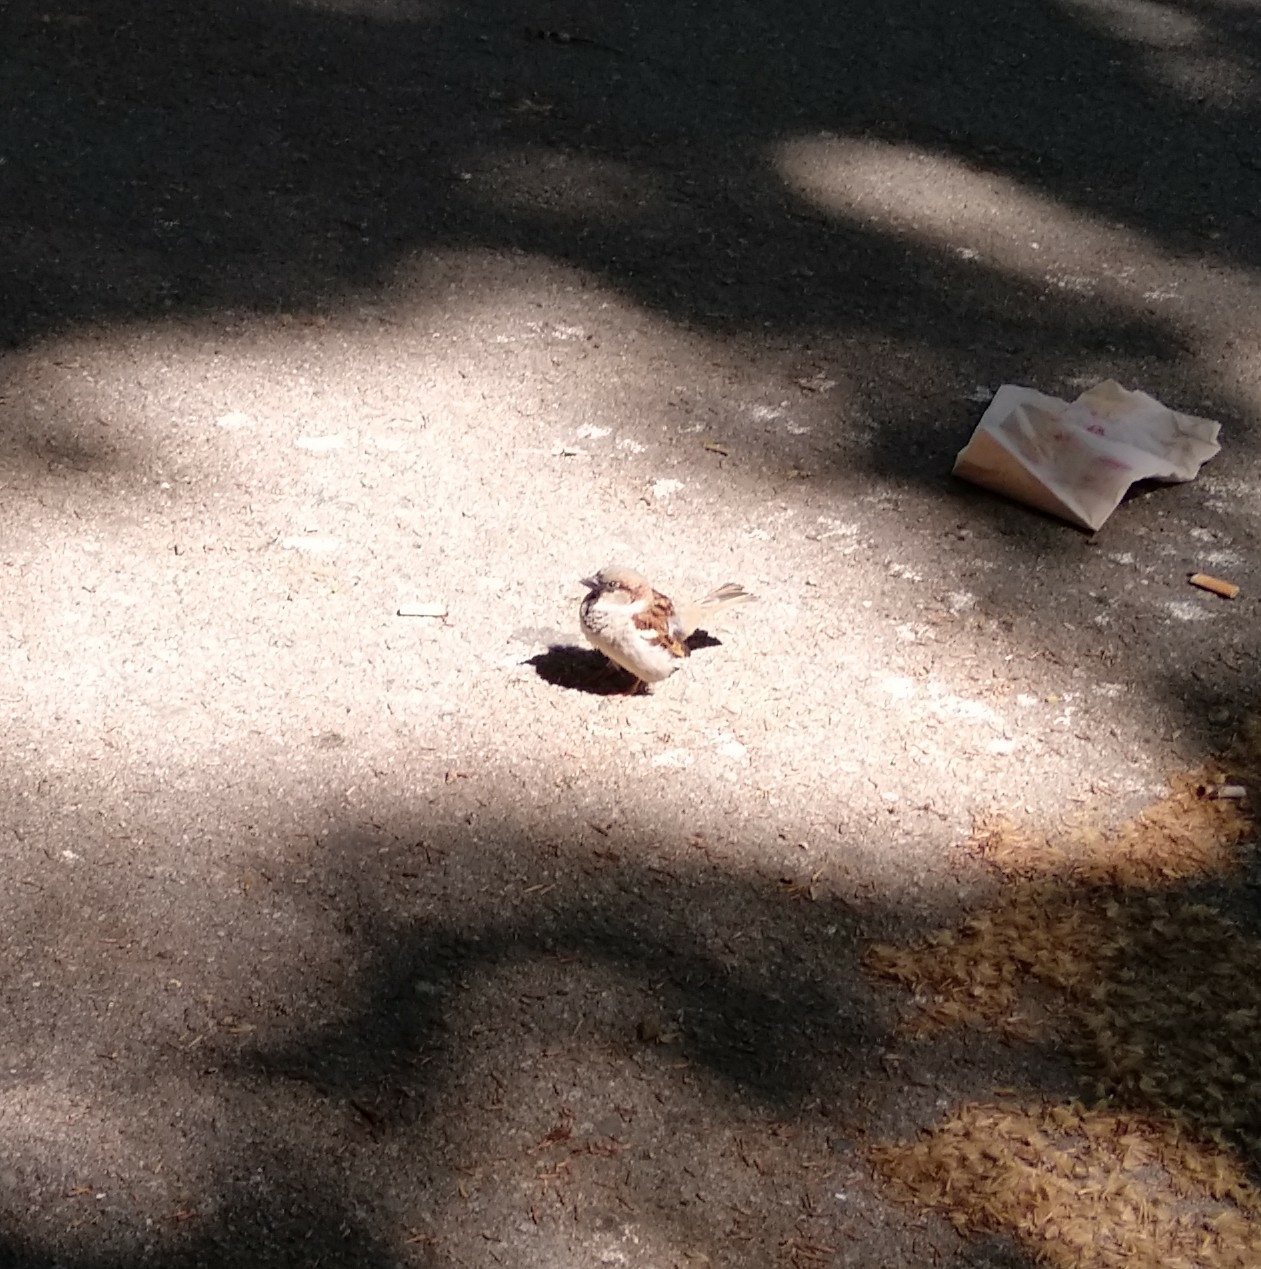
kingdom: Animalia
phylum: Chordata
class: Aves
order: Passeriformes
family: Passeridae
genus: Passer
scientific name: Passer domesticus
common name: House sparrow
